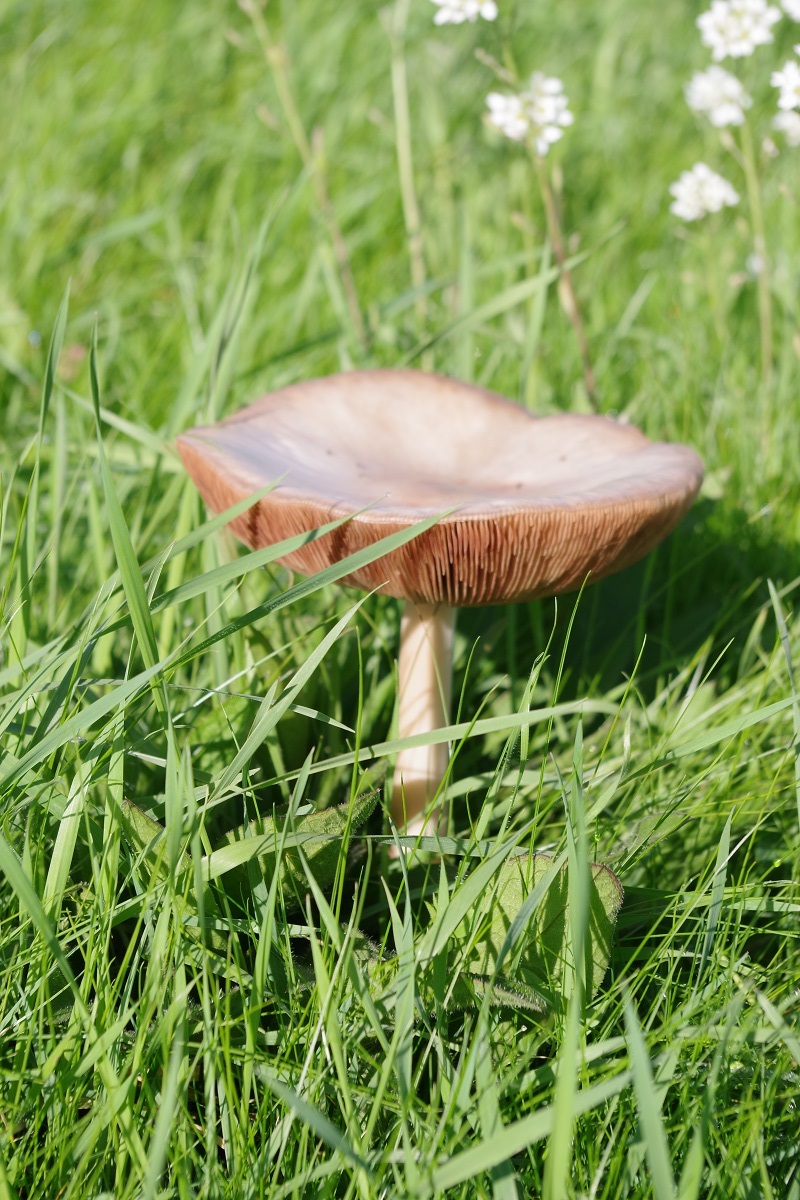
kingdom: Fungi
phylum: Basidiomycota
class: Agaricomycetes
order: Agaricales
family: Pluteaceae
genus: Volvopluteus
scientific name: Volvopluteus gloiocephalus
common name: Stubble rosegill
